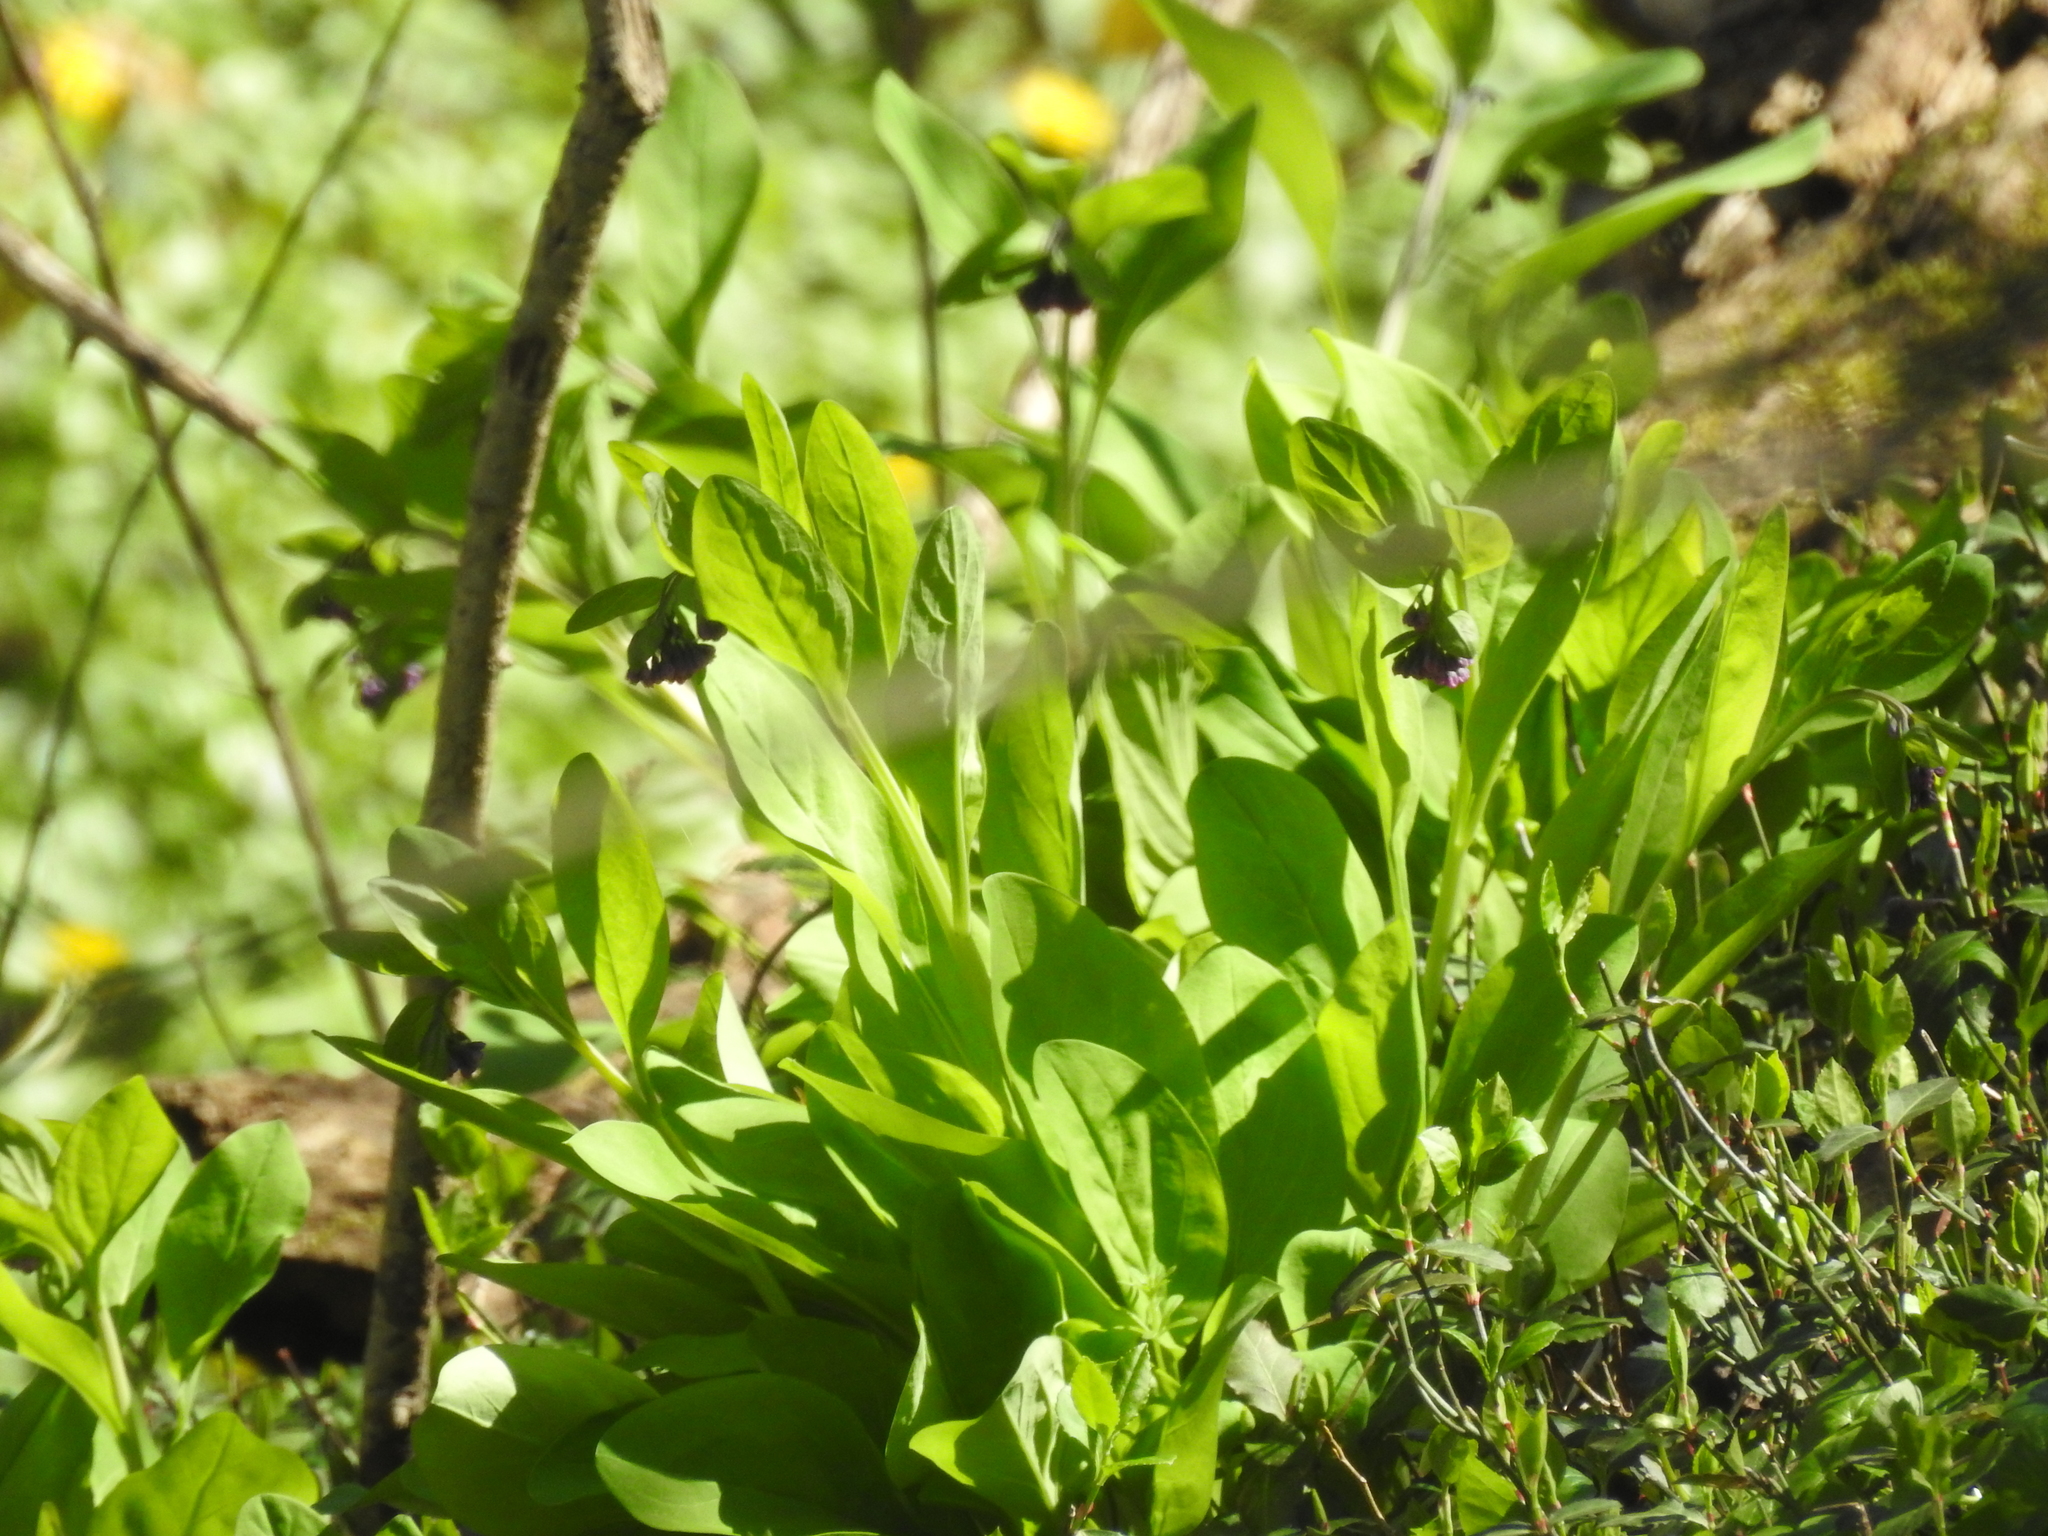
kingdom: Plantae
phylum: Tracheophyta
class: Magnoliopsida
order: Boraginales
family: Boraginaceae
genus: Mertensia
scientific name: Mertensia virginica
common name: Virginia bluebells
